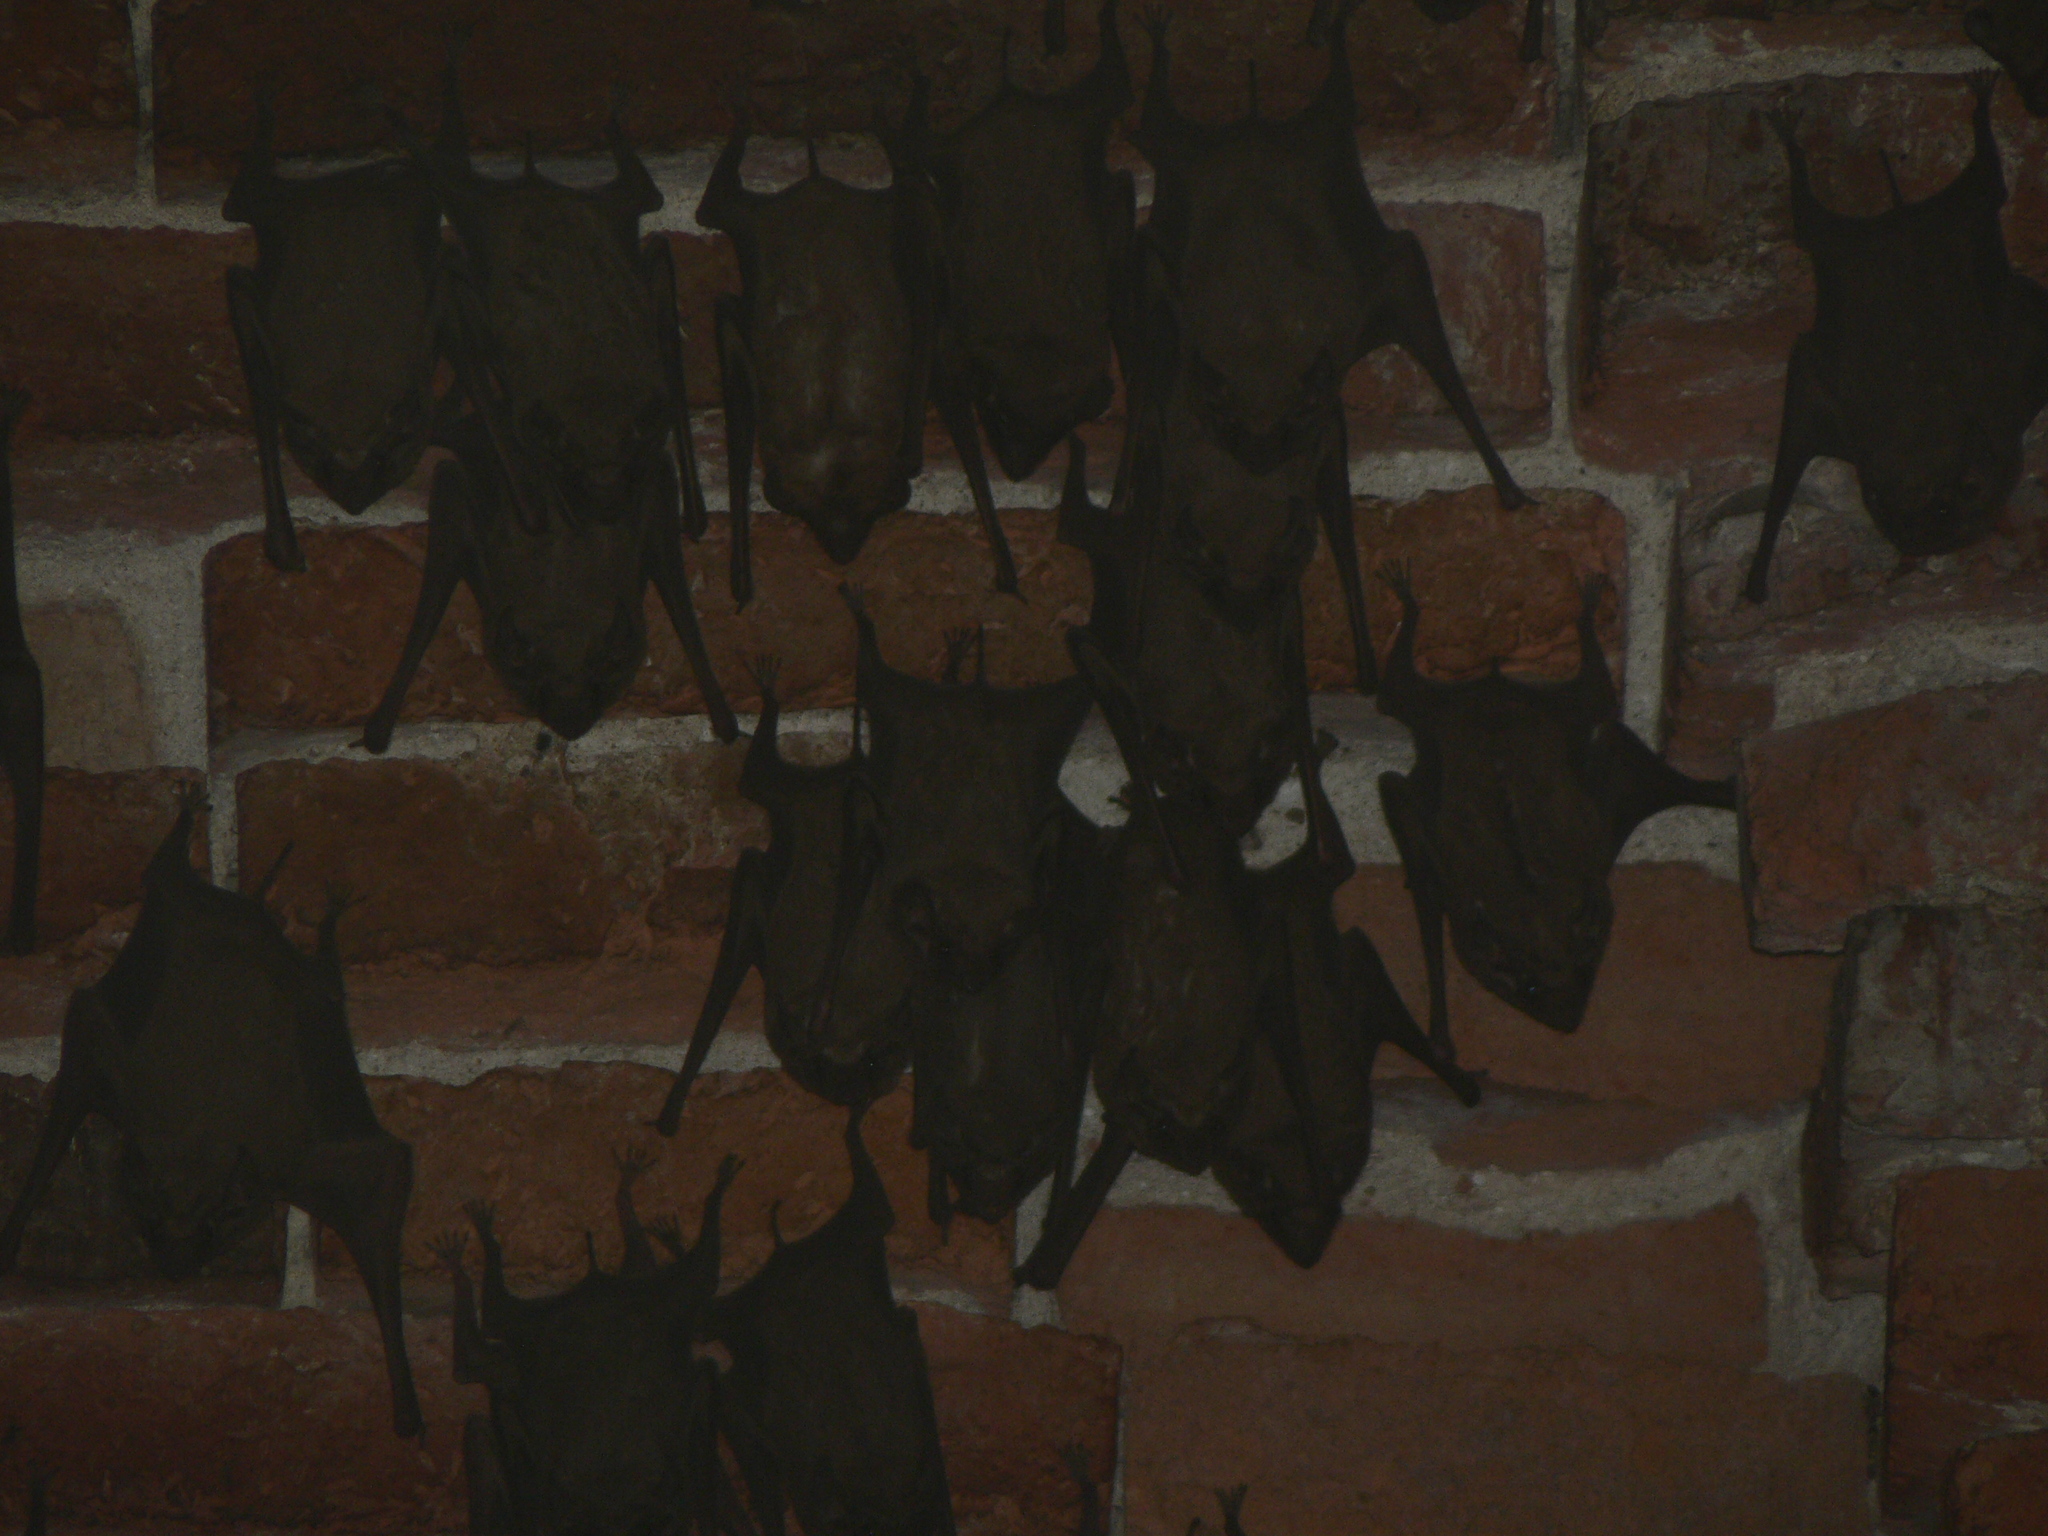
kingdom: Animalia
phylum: Chordata
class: Mammalia
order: Chiroptera
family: Emballonuridae
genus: Taphozous
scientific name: Taphozous melanopogon
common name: Black-bearded tomb bat
